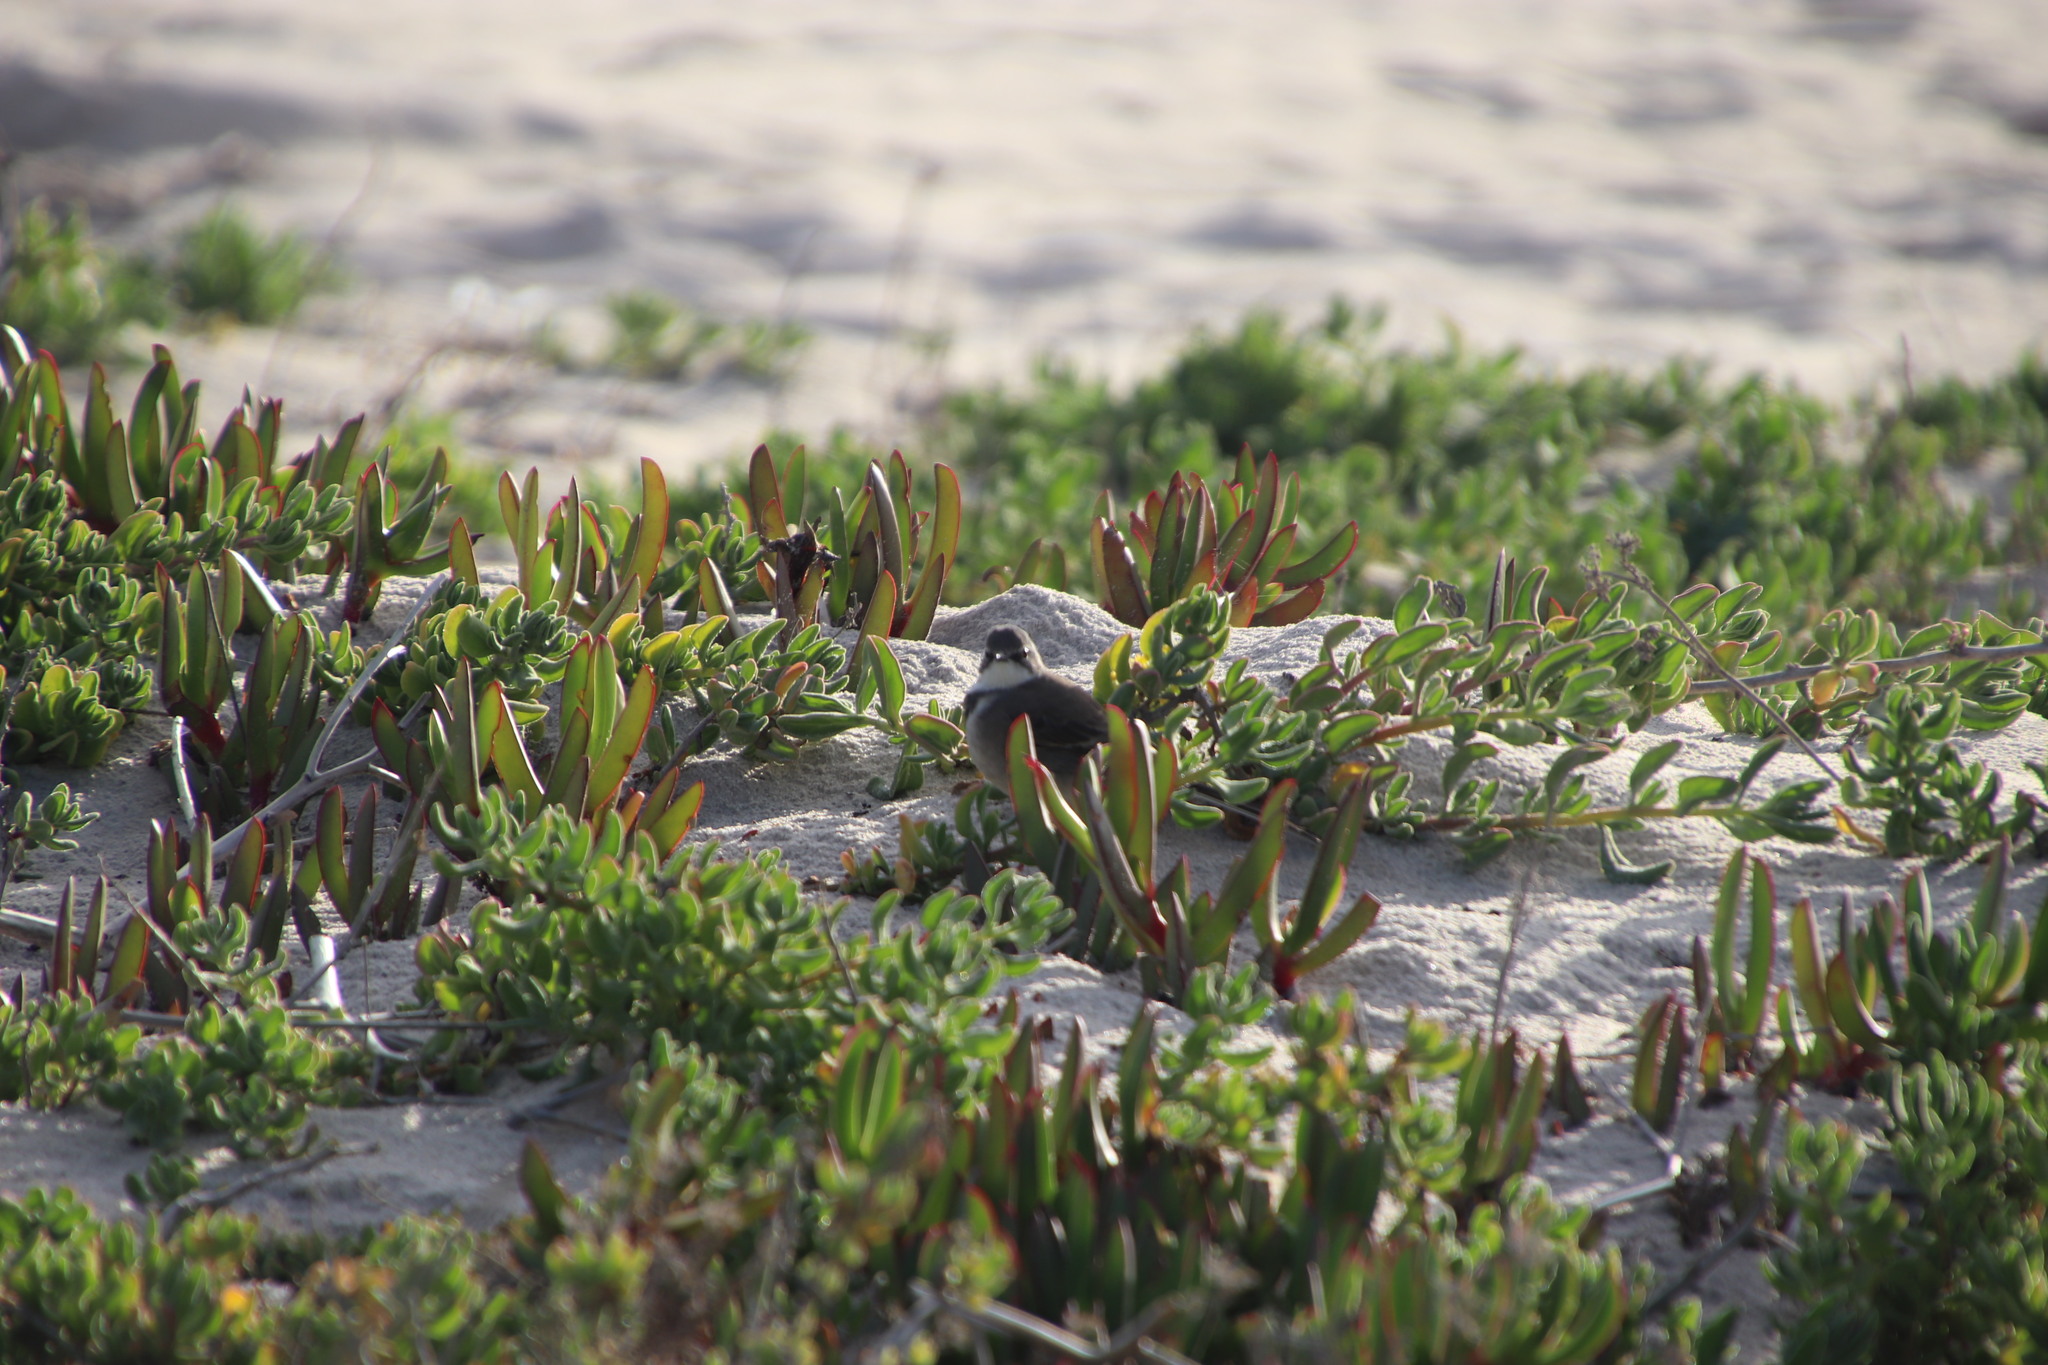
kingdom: Animalia
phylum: Chordata
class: Aves
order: Passeriformes
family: Motacillidae
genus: Motacilla
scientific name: Motacilla capensis
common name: Cape wagtail
